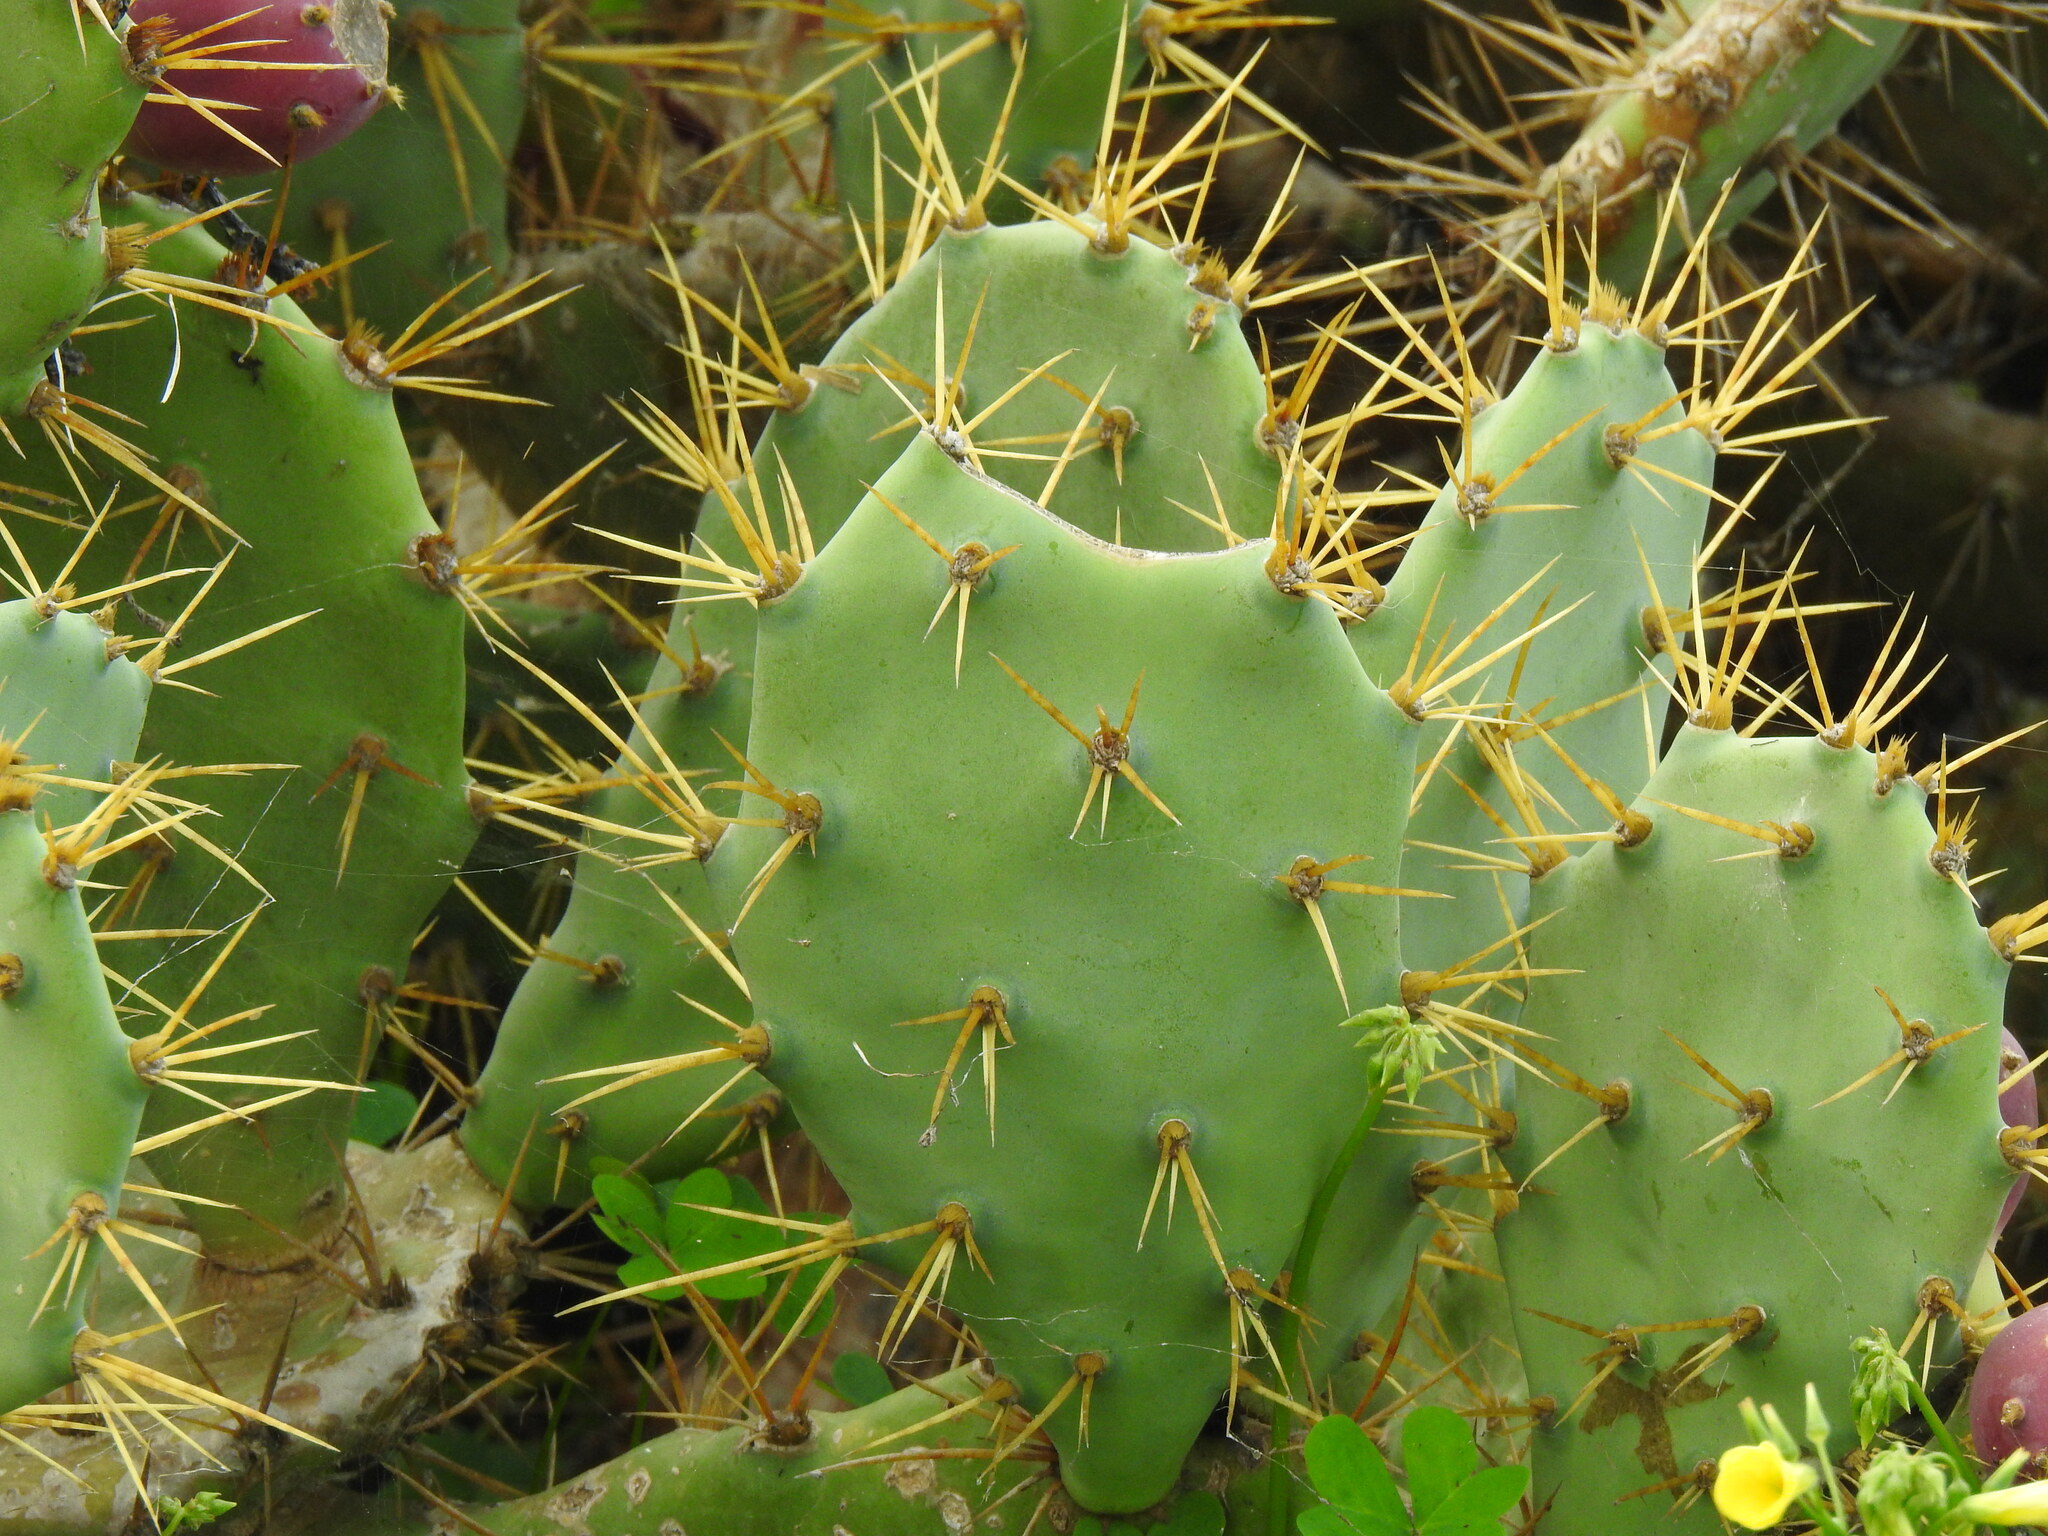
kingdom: Plantae
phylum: Tracheophyta
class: Magnoliopsida
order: Caryophyllales
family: Cactaceae
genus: Opuntia
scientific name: Opuntia stricta
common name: Erect pricklypear
